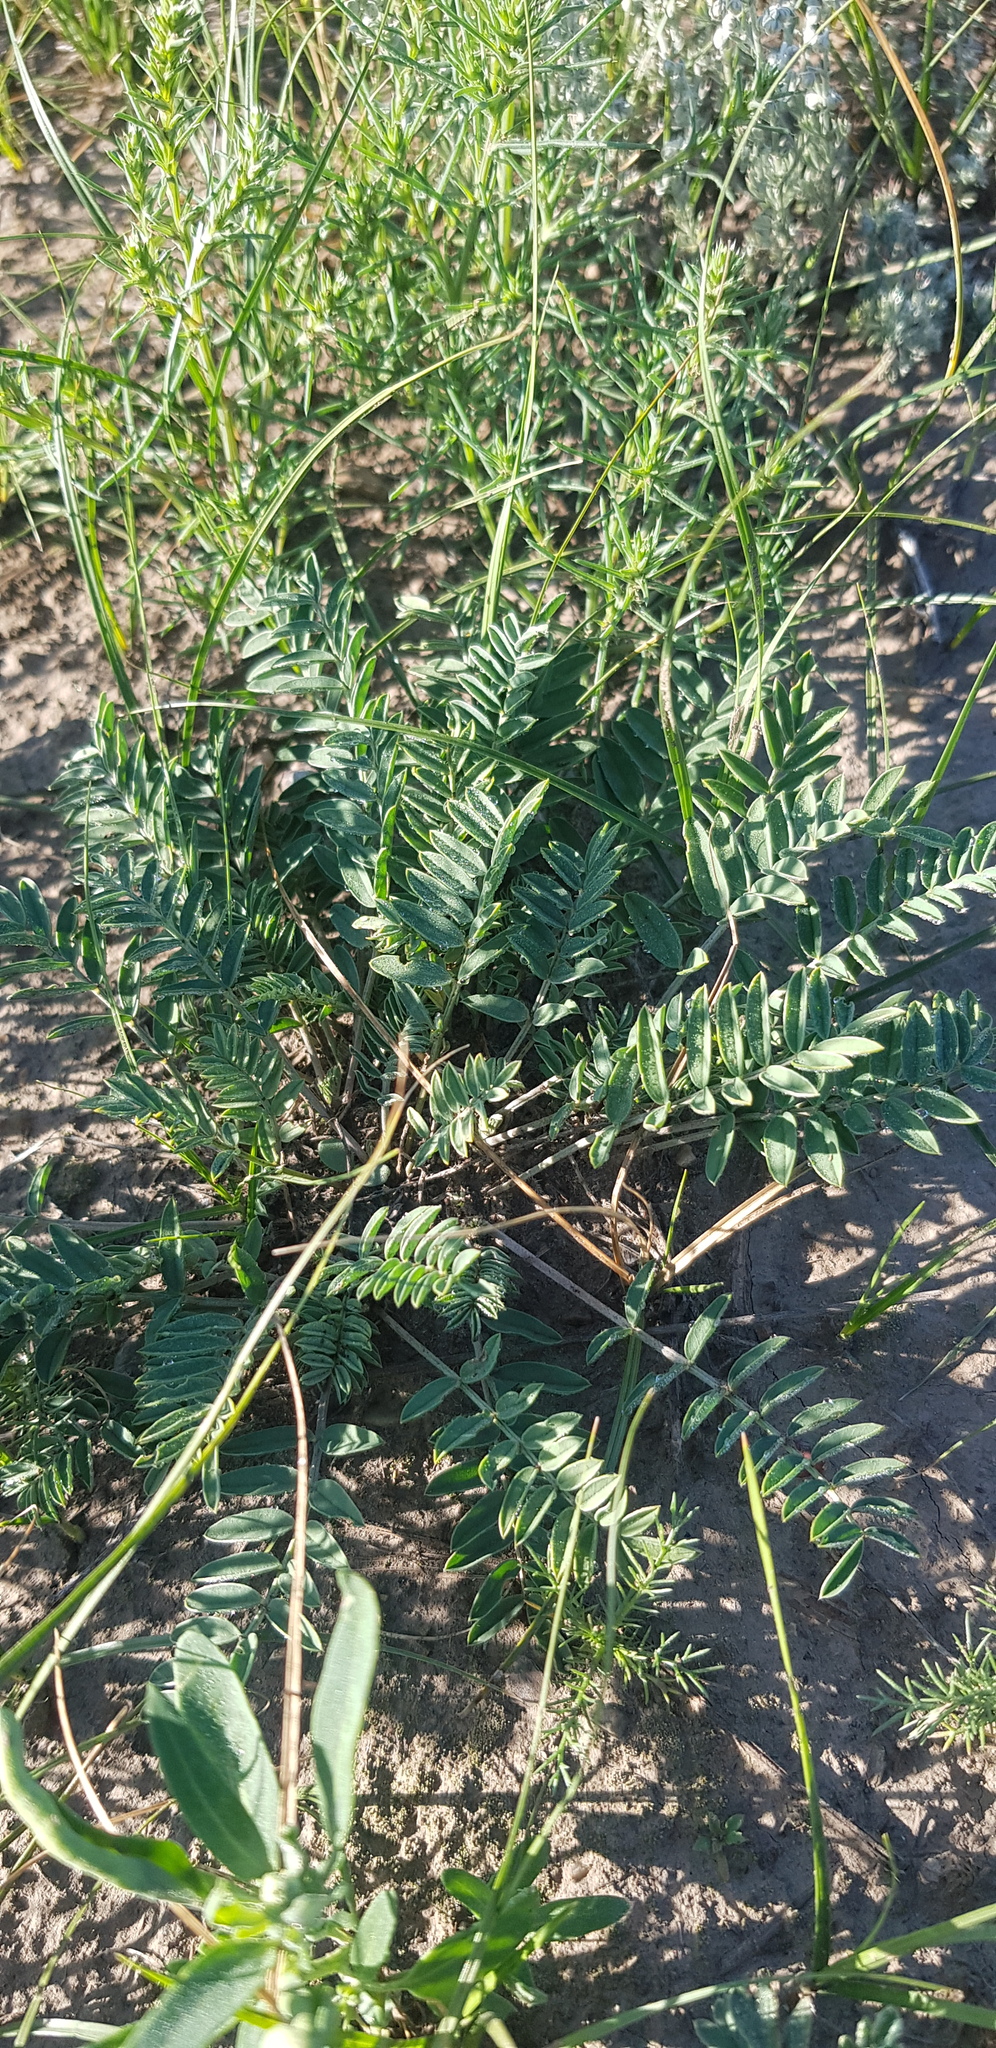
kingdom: Plantae
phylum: Tracheophyta
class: Magnoliopsida
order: Fabales
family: Fabaceae
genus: Astragalus
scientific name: Astragalus laxmannii
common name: Laxmann's milk-vetch
